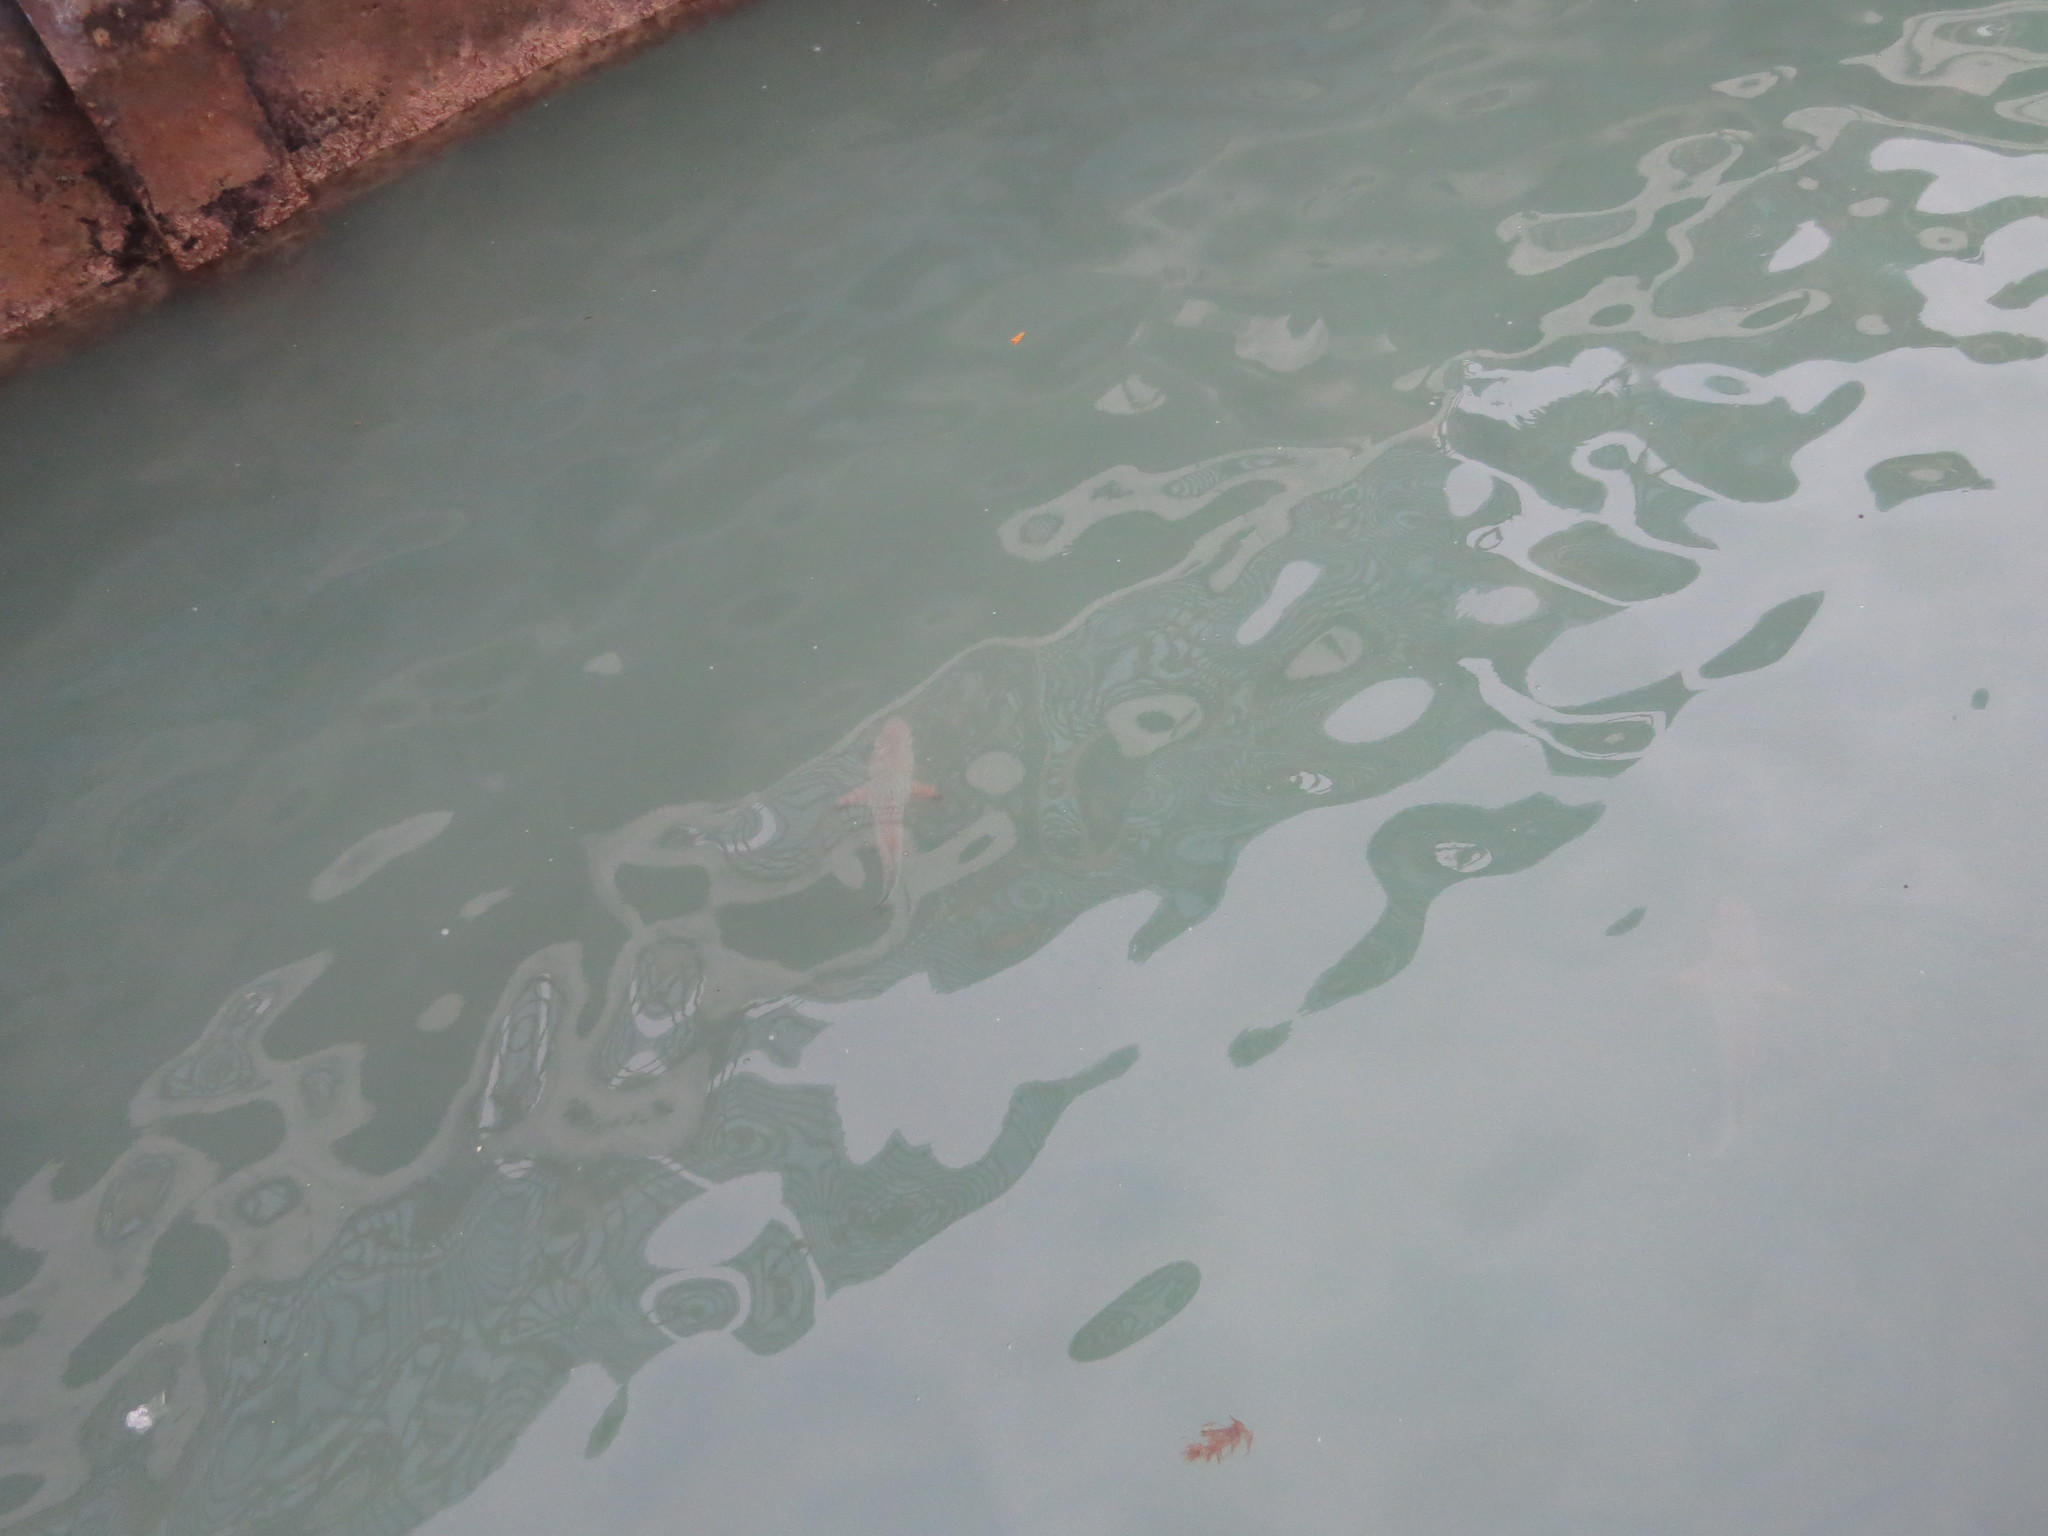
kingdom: Animalia
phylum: Chordata
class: Elasmobranchii
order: Carcharhiniformes
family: Carcharhinidae
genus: Carcharhinus
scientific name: Carcharhinus limbatus
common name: Blacktip shark
